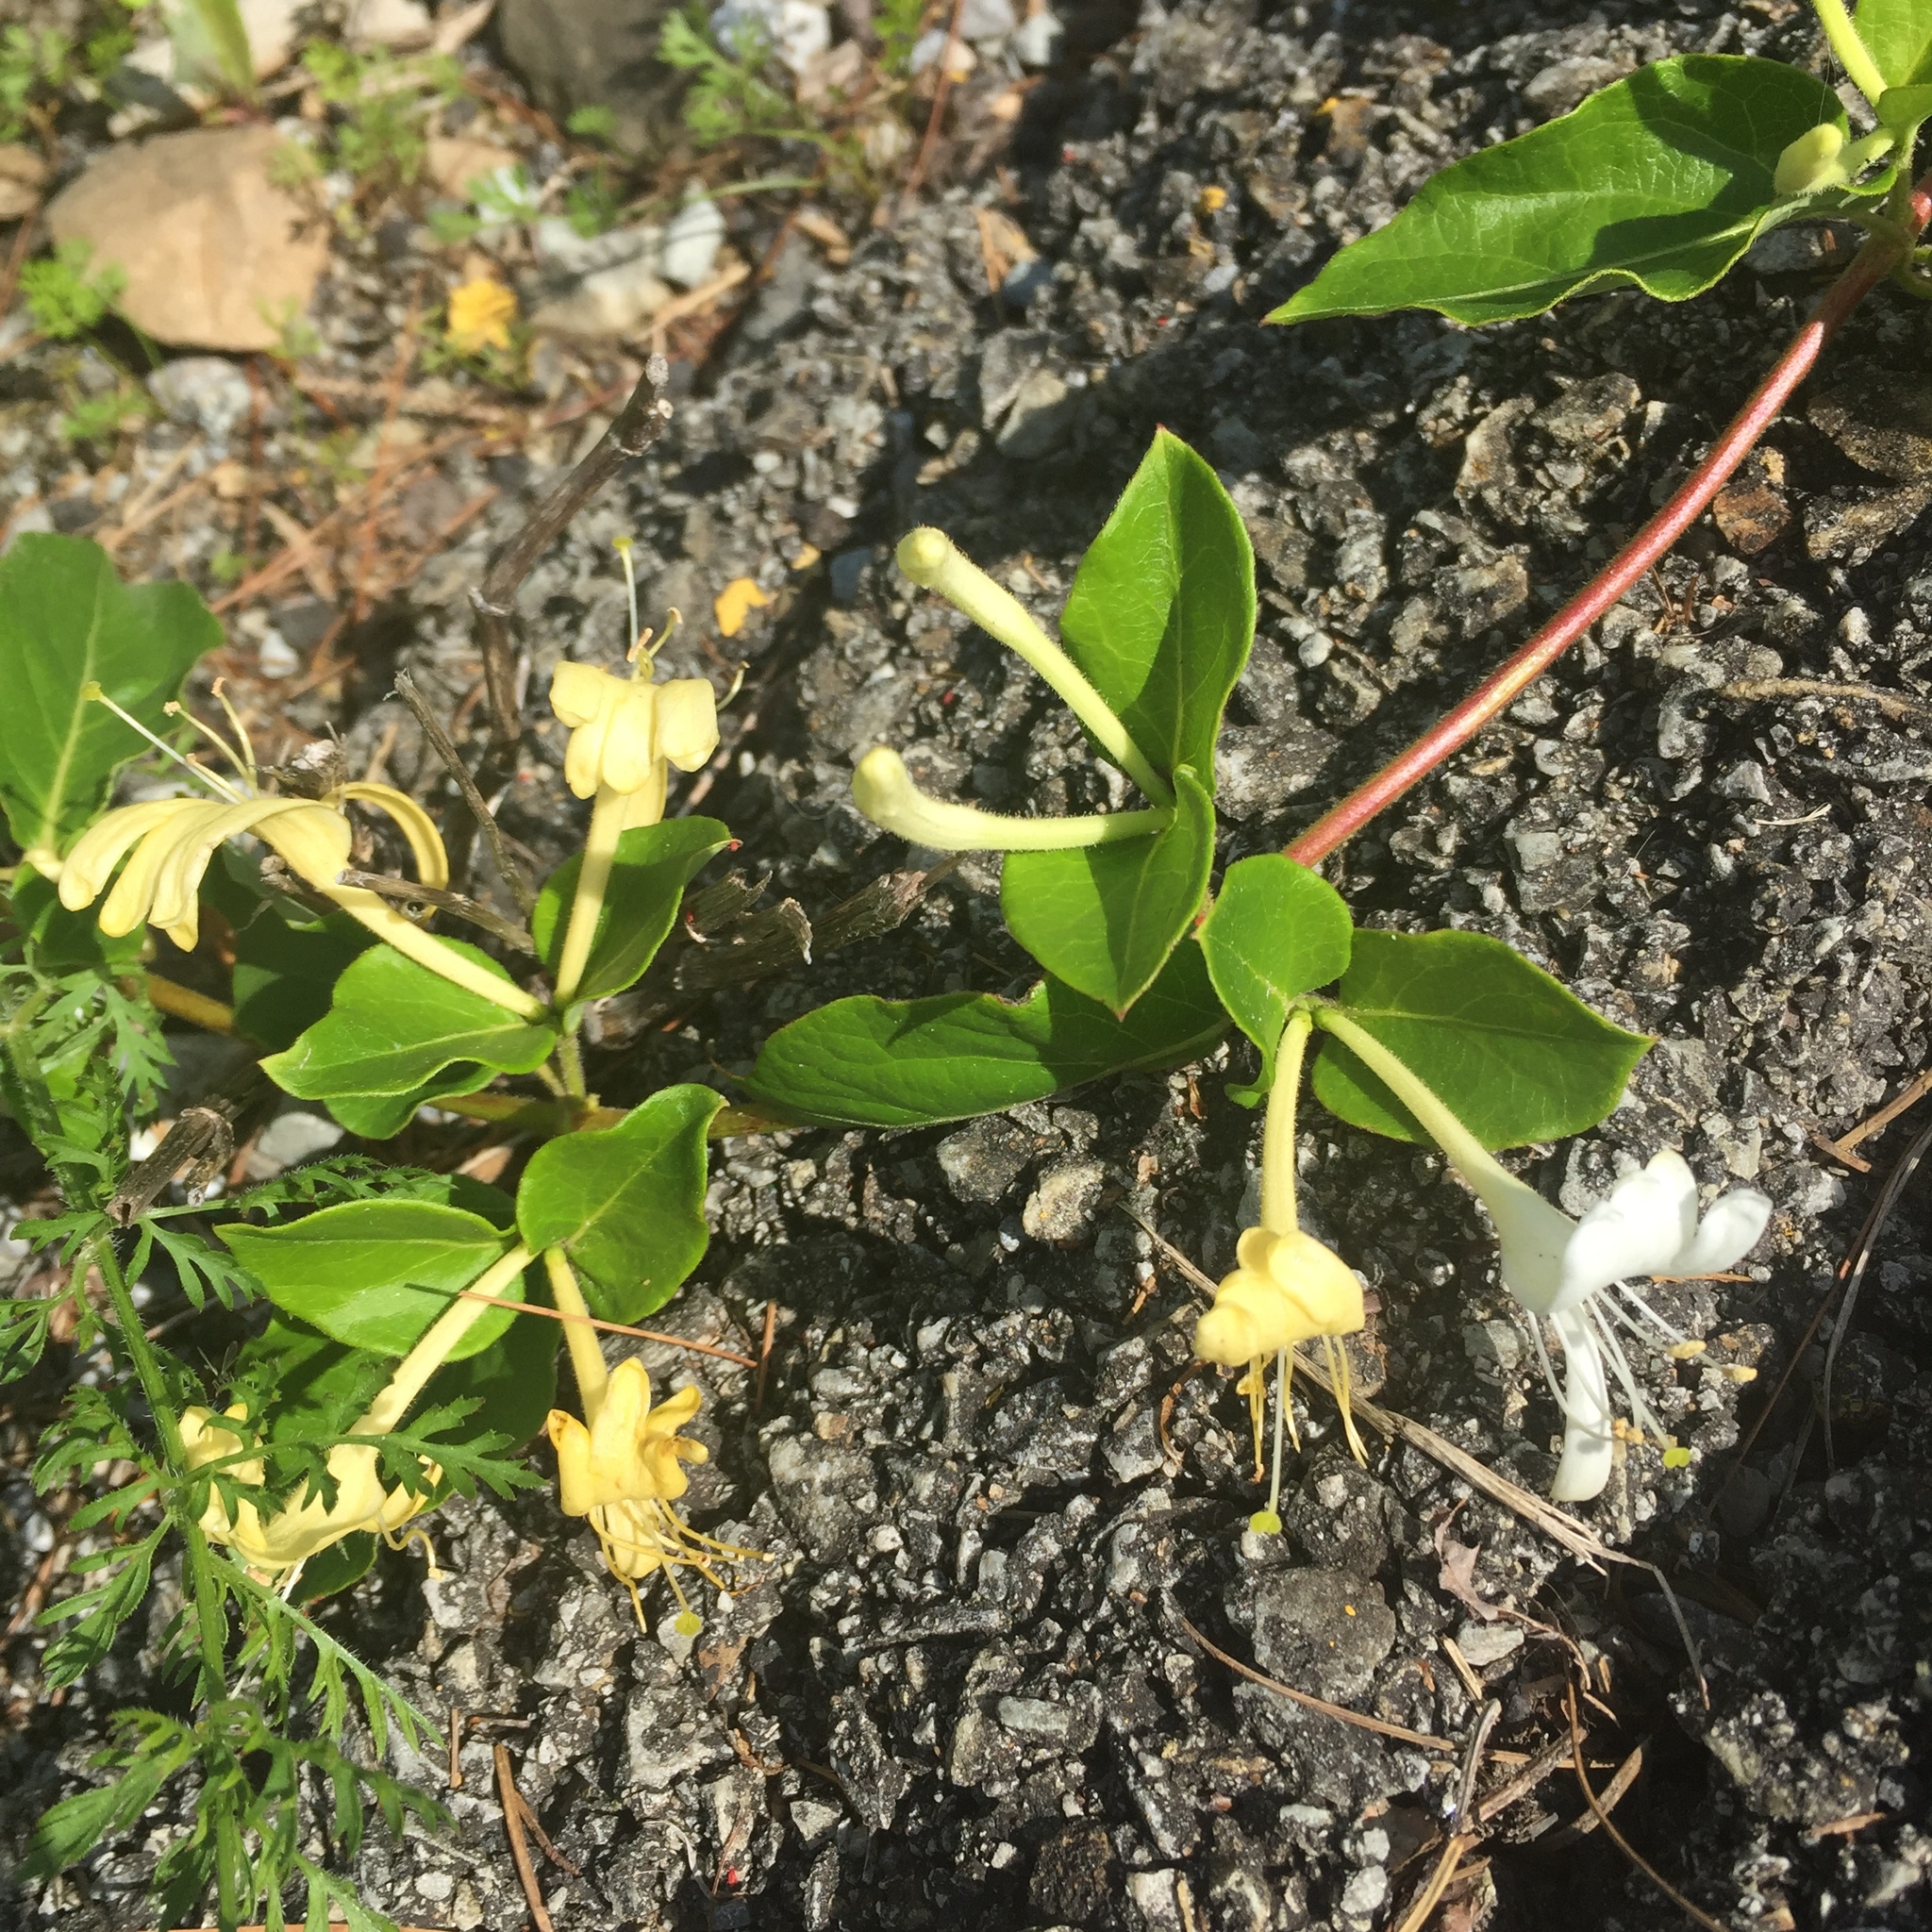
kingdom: Plantae
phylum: Tracheophyta
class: Magnoliopsida
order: Dipsacales
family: Caprifoliaceae
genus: Lonicera
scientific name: Lonicera japonica
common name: Japanese honeysuckle
